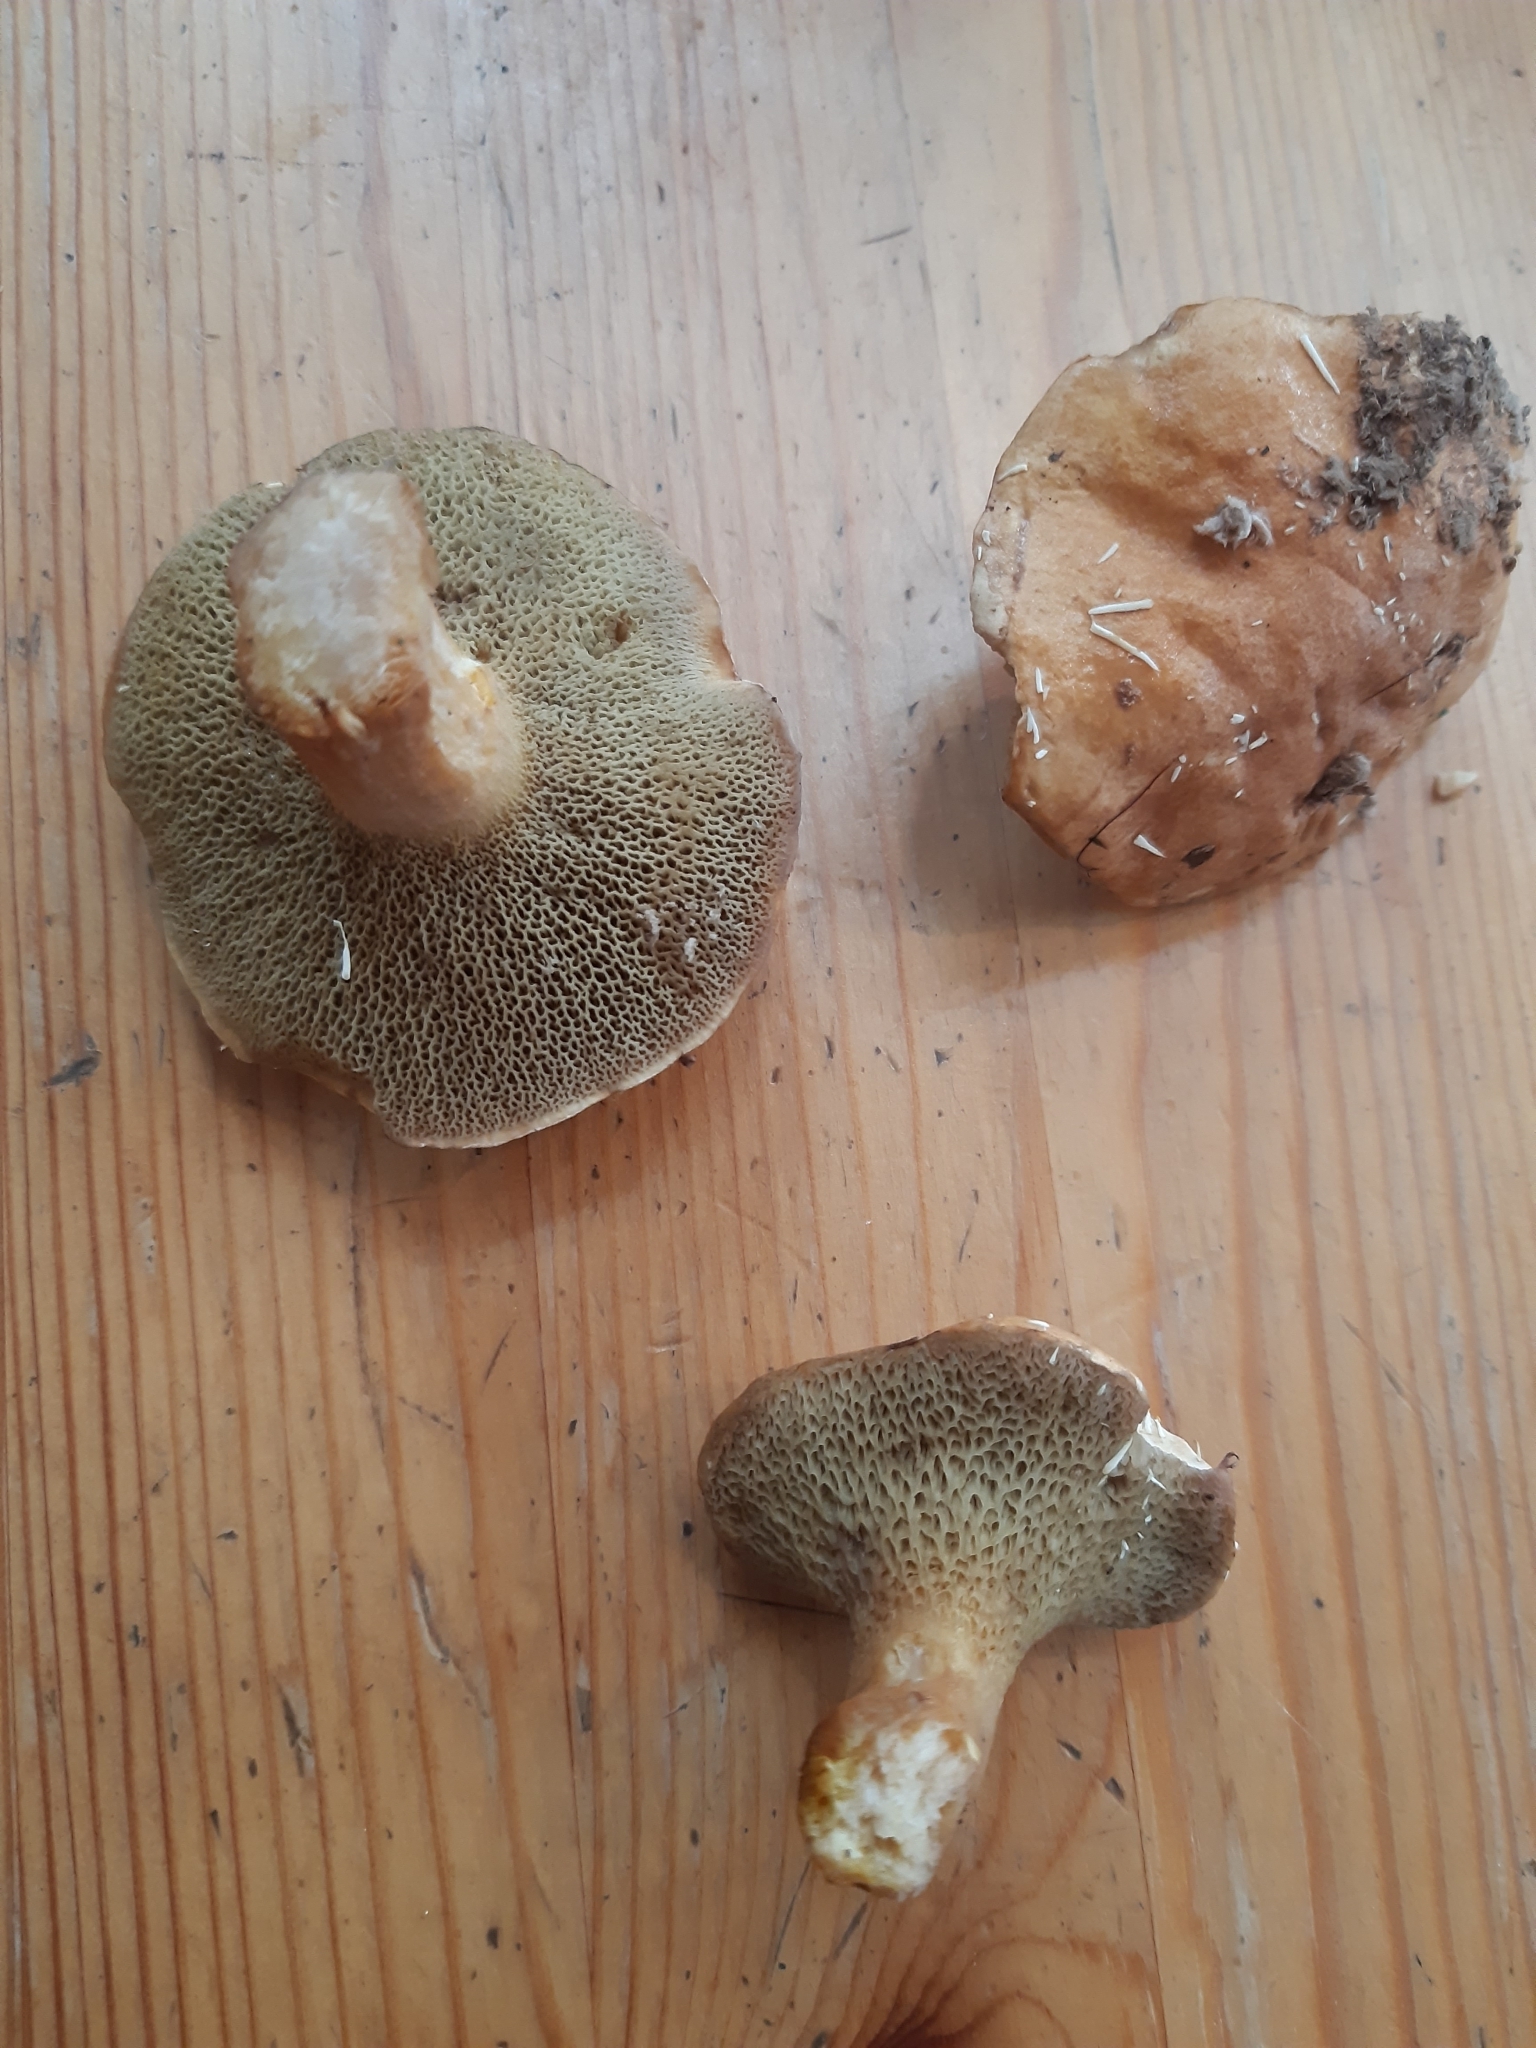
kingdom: Fungi
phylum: Basidiomycota
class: Agaricomycetes
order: Boletales
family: Suillaceae
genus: Suillus
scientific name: Suillus bovinus
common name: Bovine bolete
